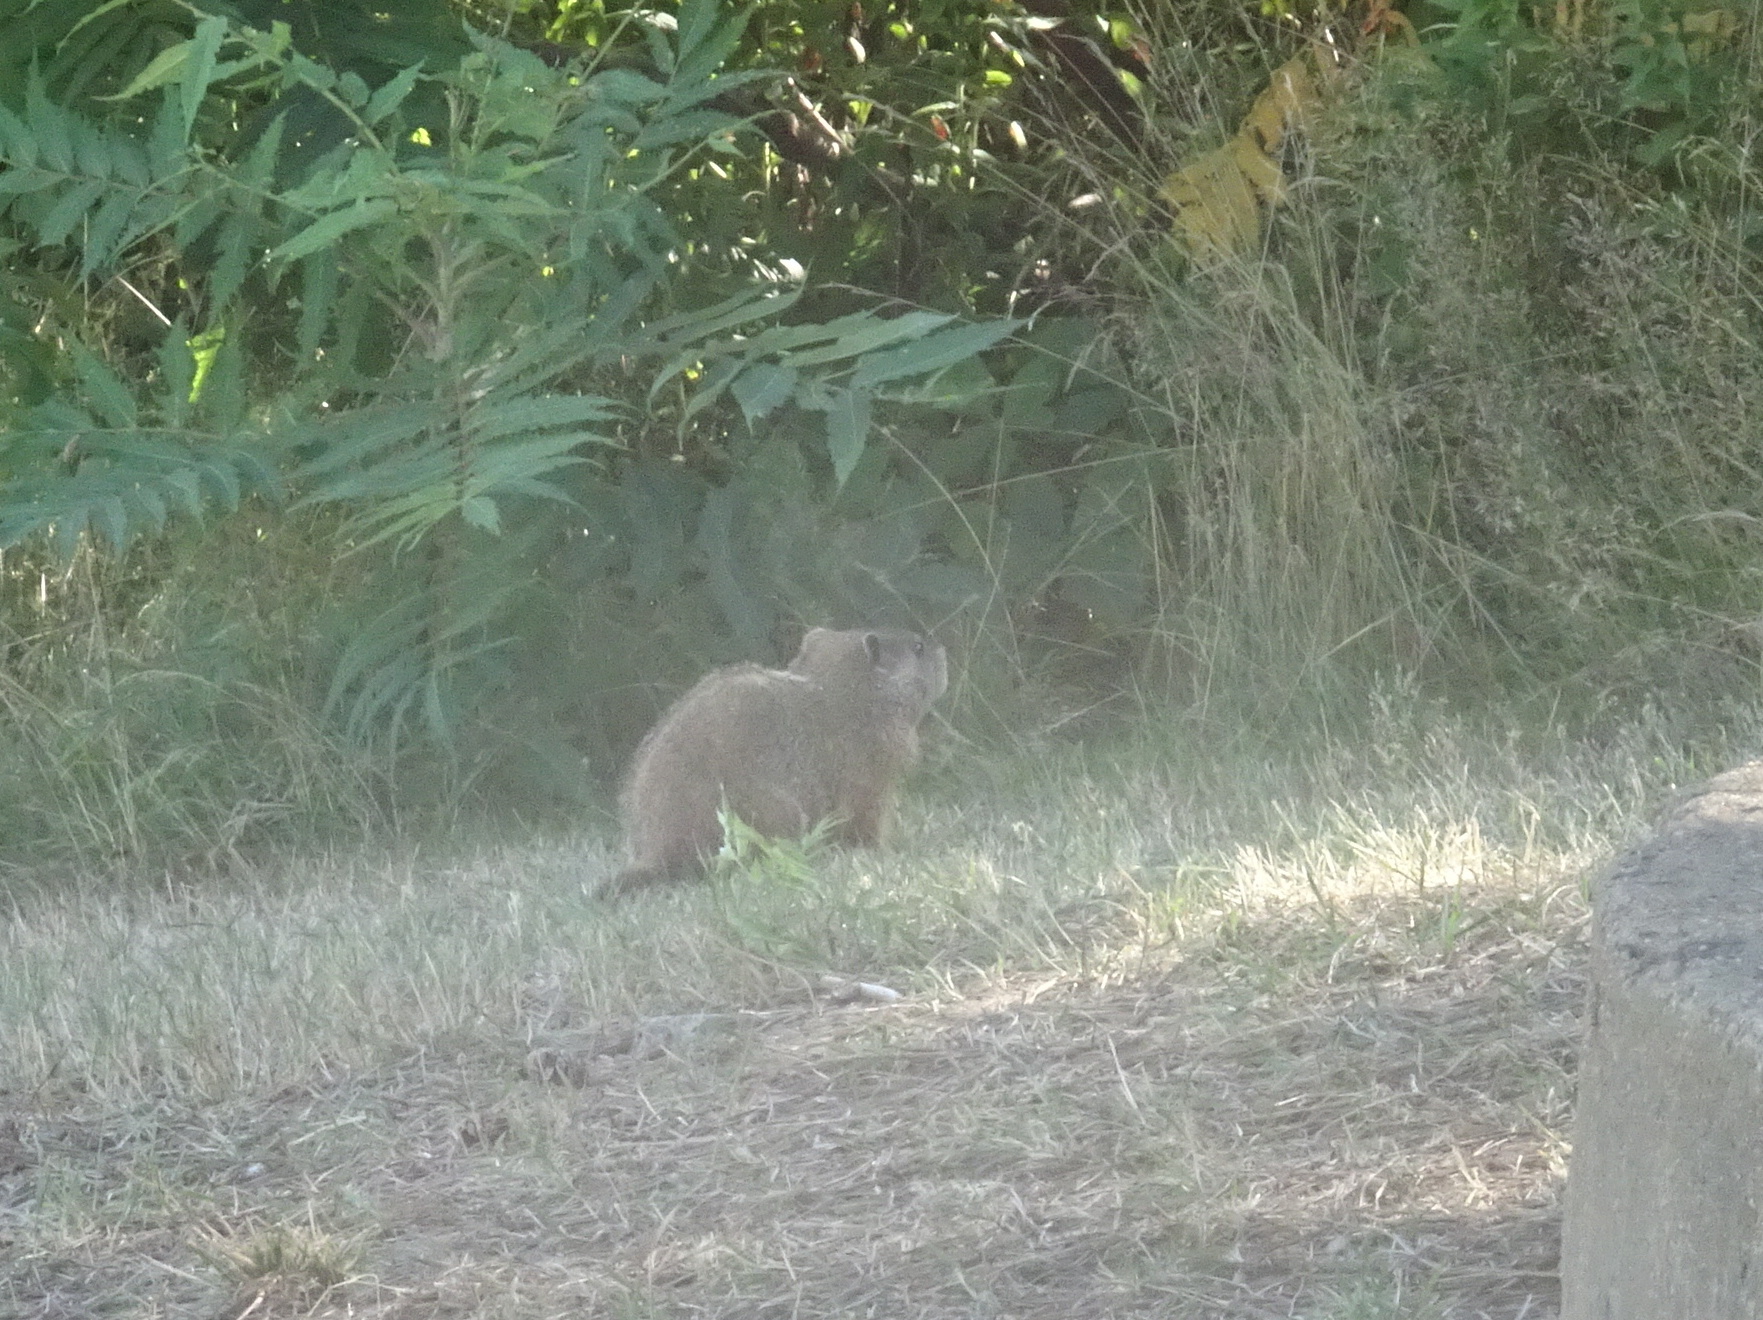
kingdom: Animalia
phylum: Chordata
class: Mammalia
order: Rodentia
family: Sciuridae
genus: Marmota
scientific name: Marmota monax
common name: Groundhog
